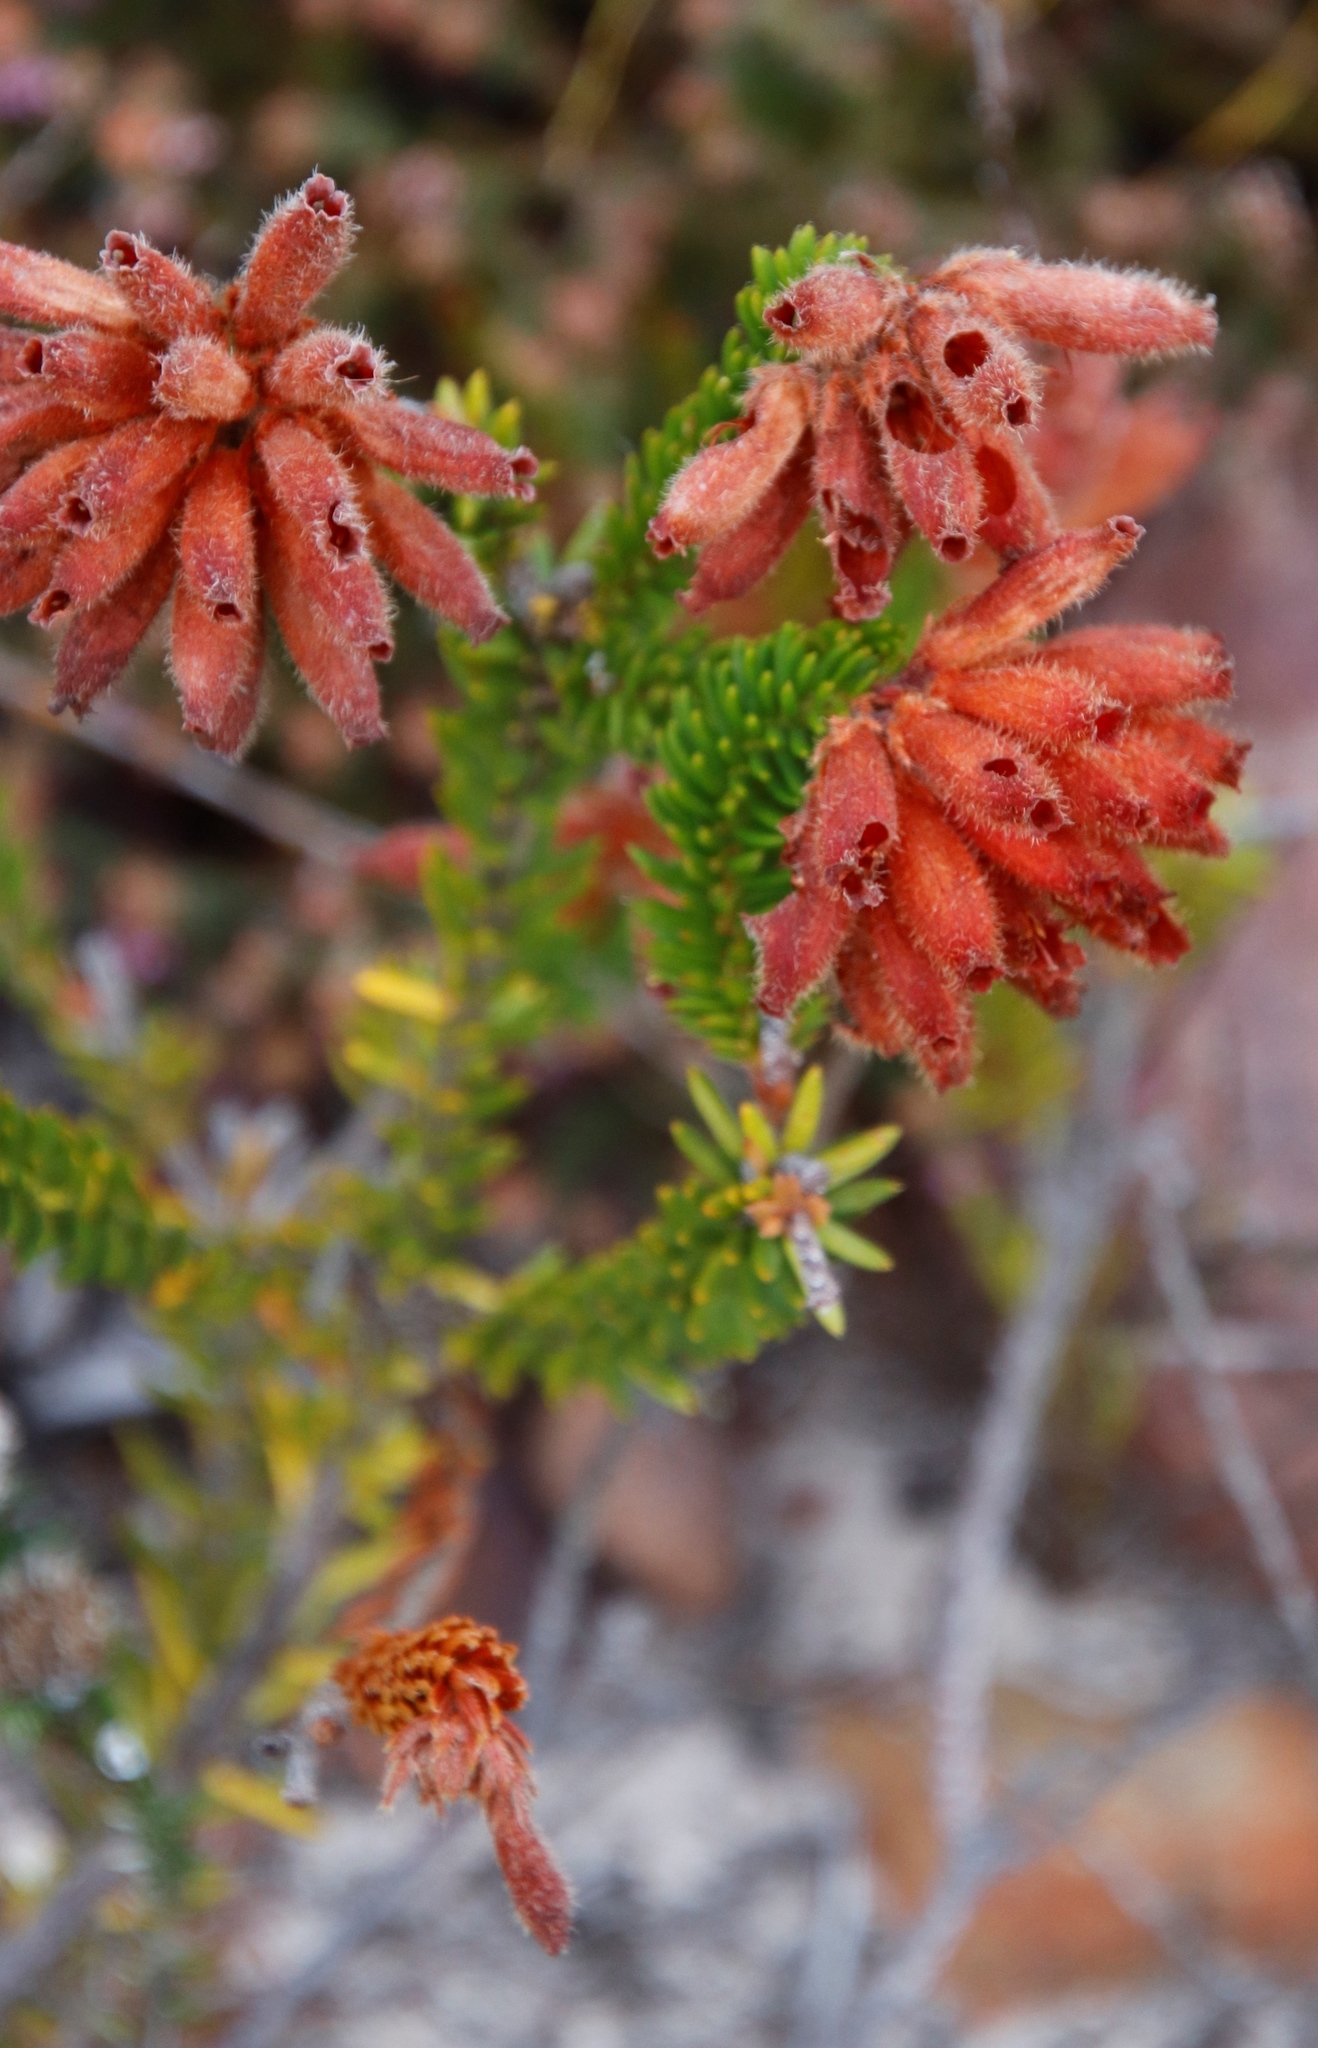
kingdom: Plantae
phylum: Tracheophyta
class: Magnoliopsida
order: Ericales
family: Ericaceae
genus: Erica
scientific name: Erica cerinthoides
